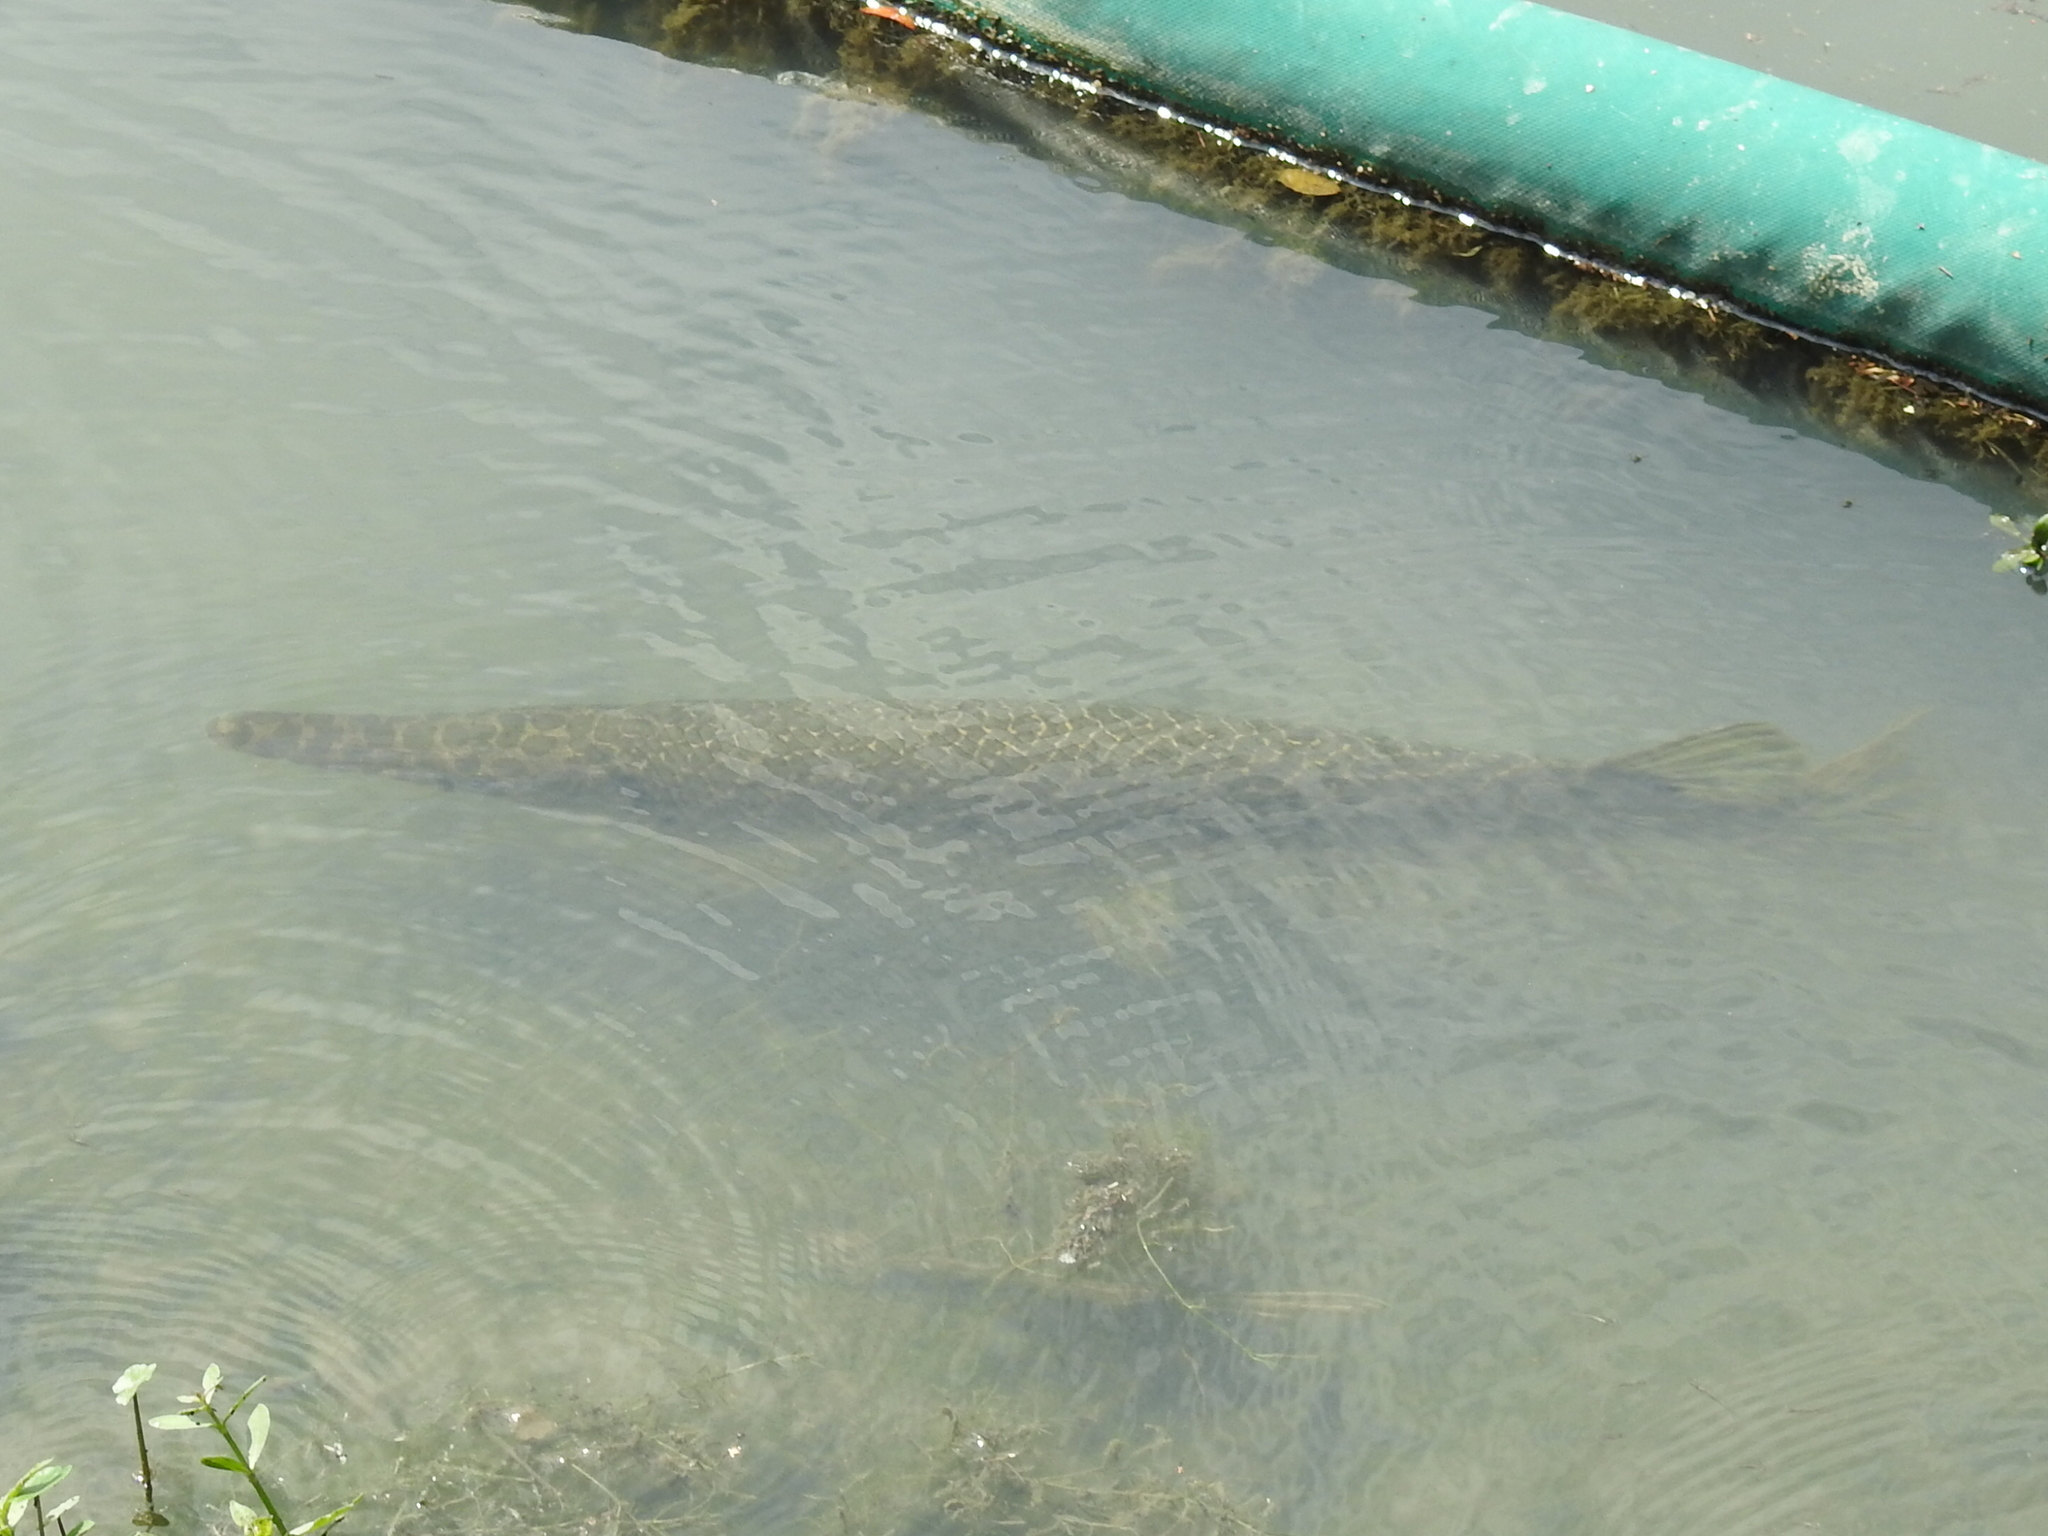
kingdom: Animalia
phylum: Chordata
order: Lepisosteiformes
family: Lepisosteidae
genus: Lepisosteus
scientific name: Lepisosteus oculatus
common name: Spotted gar
